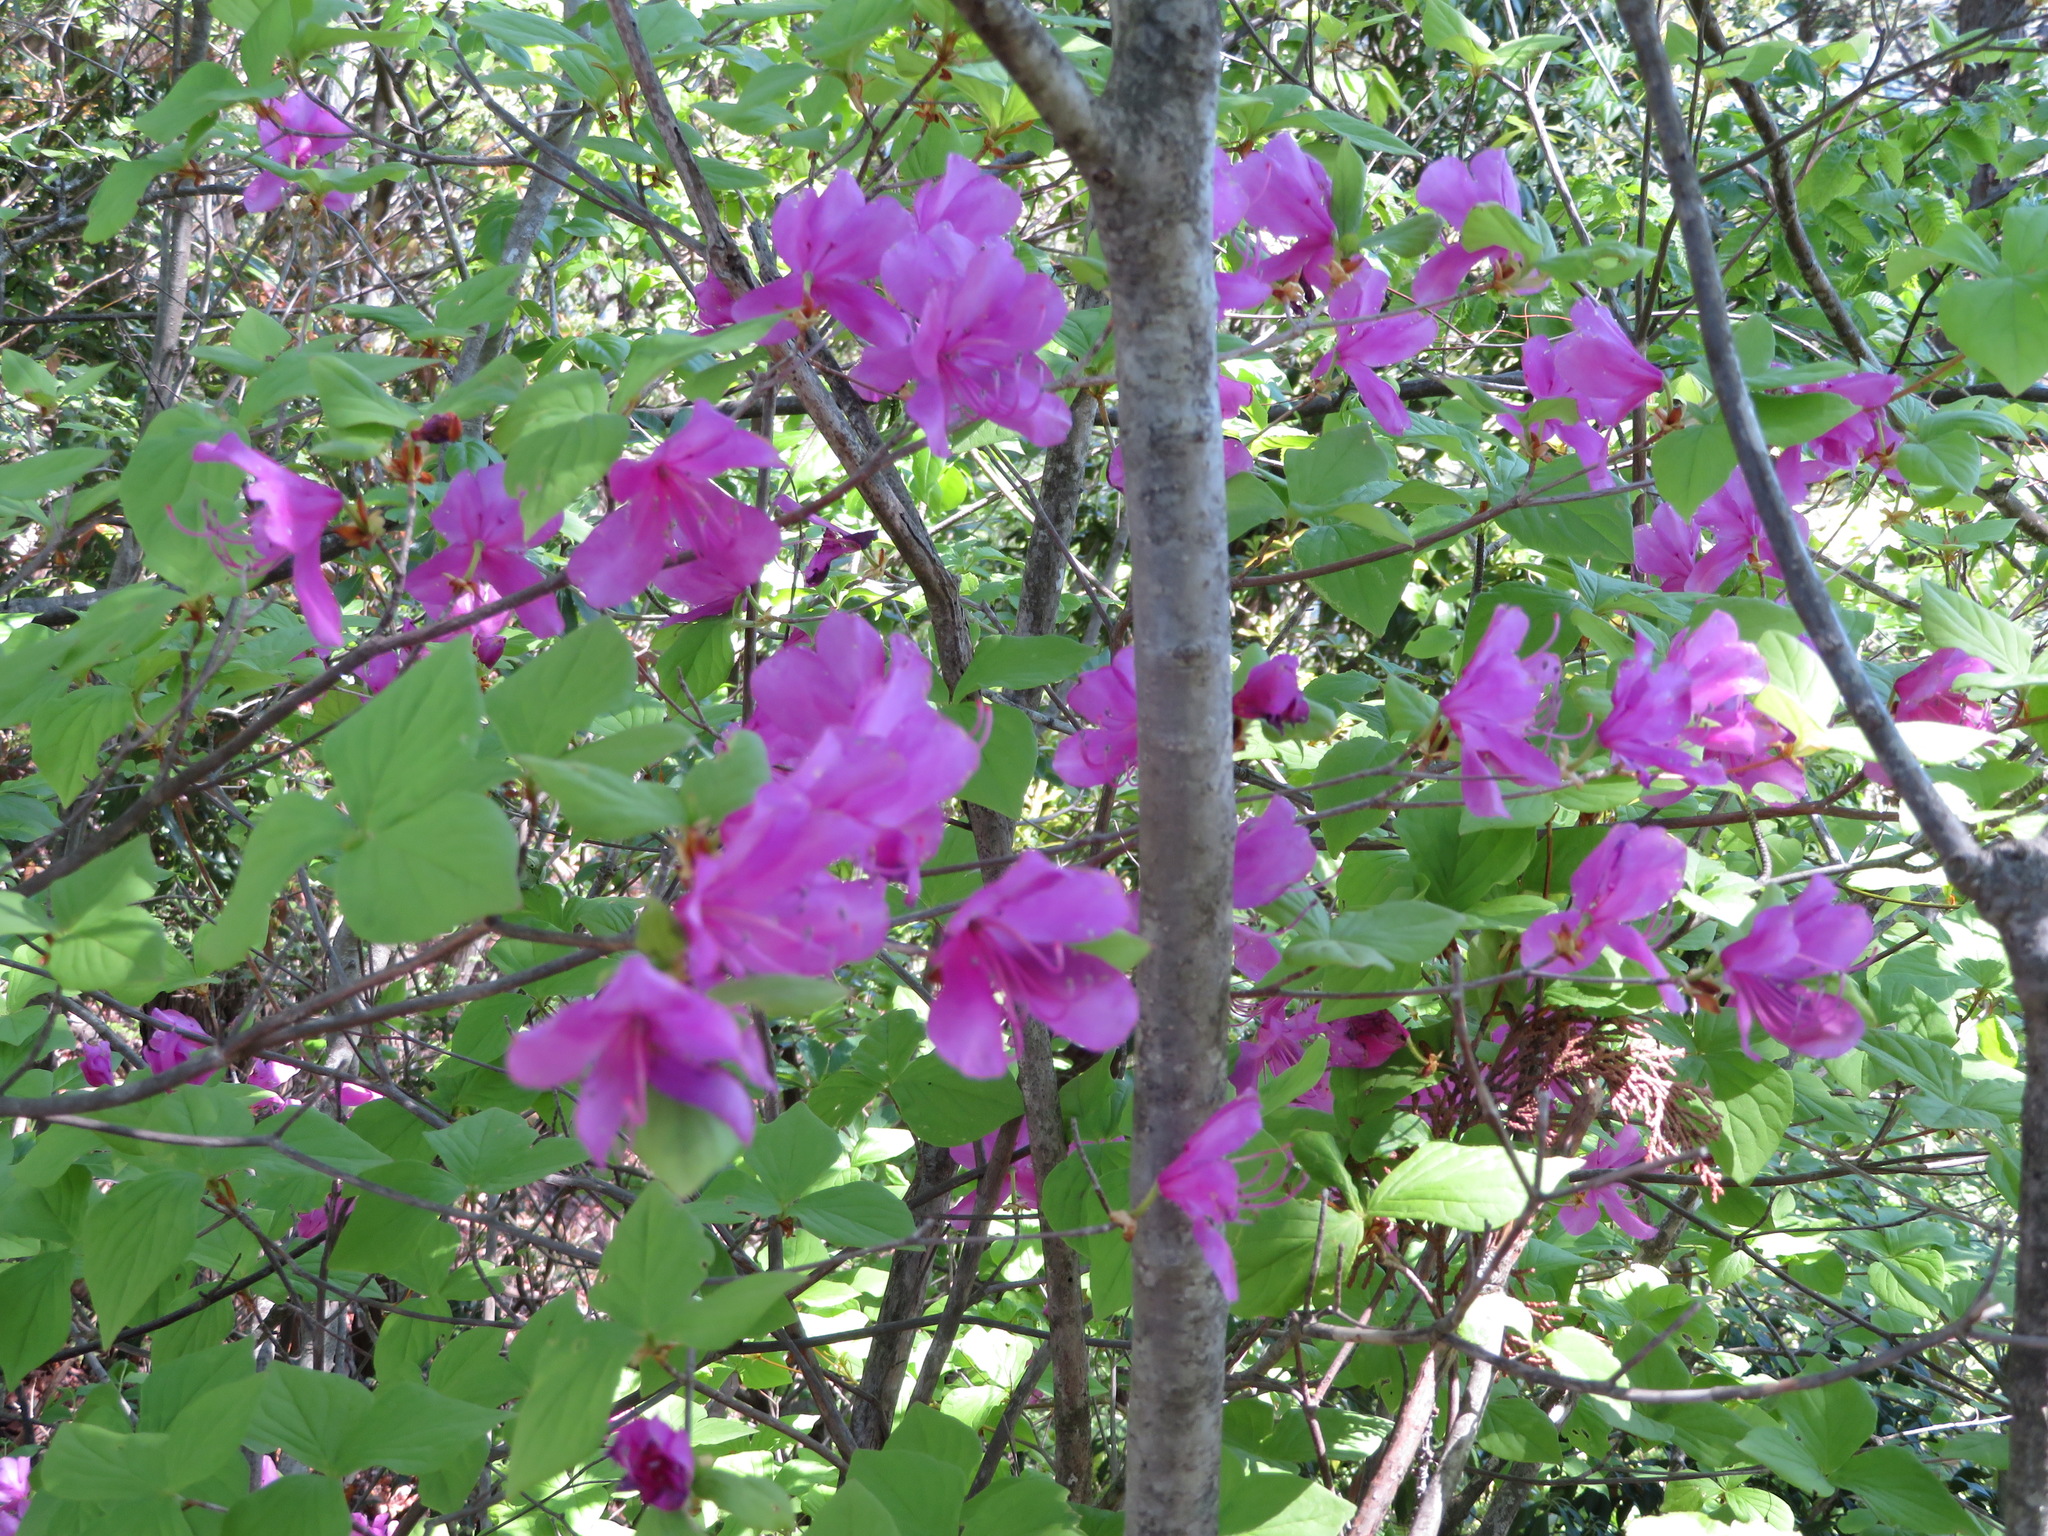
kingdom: Plantae
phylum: Tracheophyta
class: Magnoliopsida
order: Ericales
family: Ericaceae
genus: Rhododendron
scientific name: Rhododendron dilatatum
